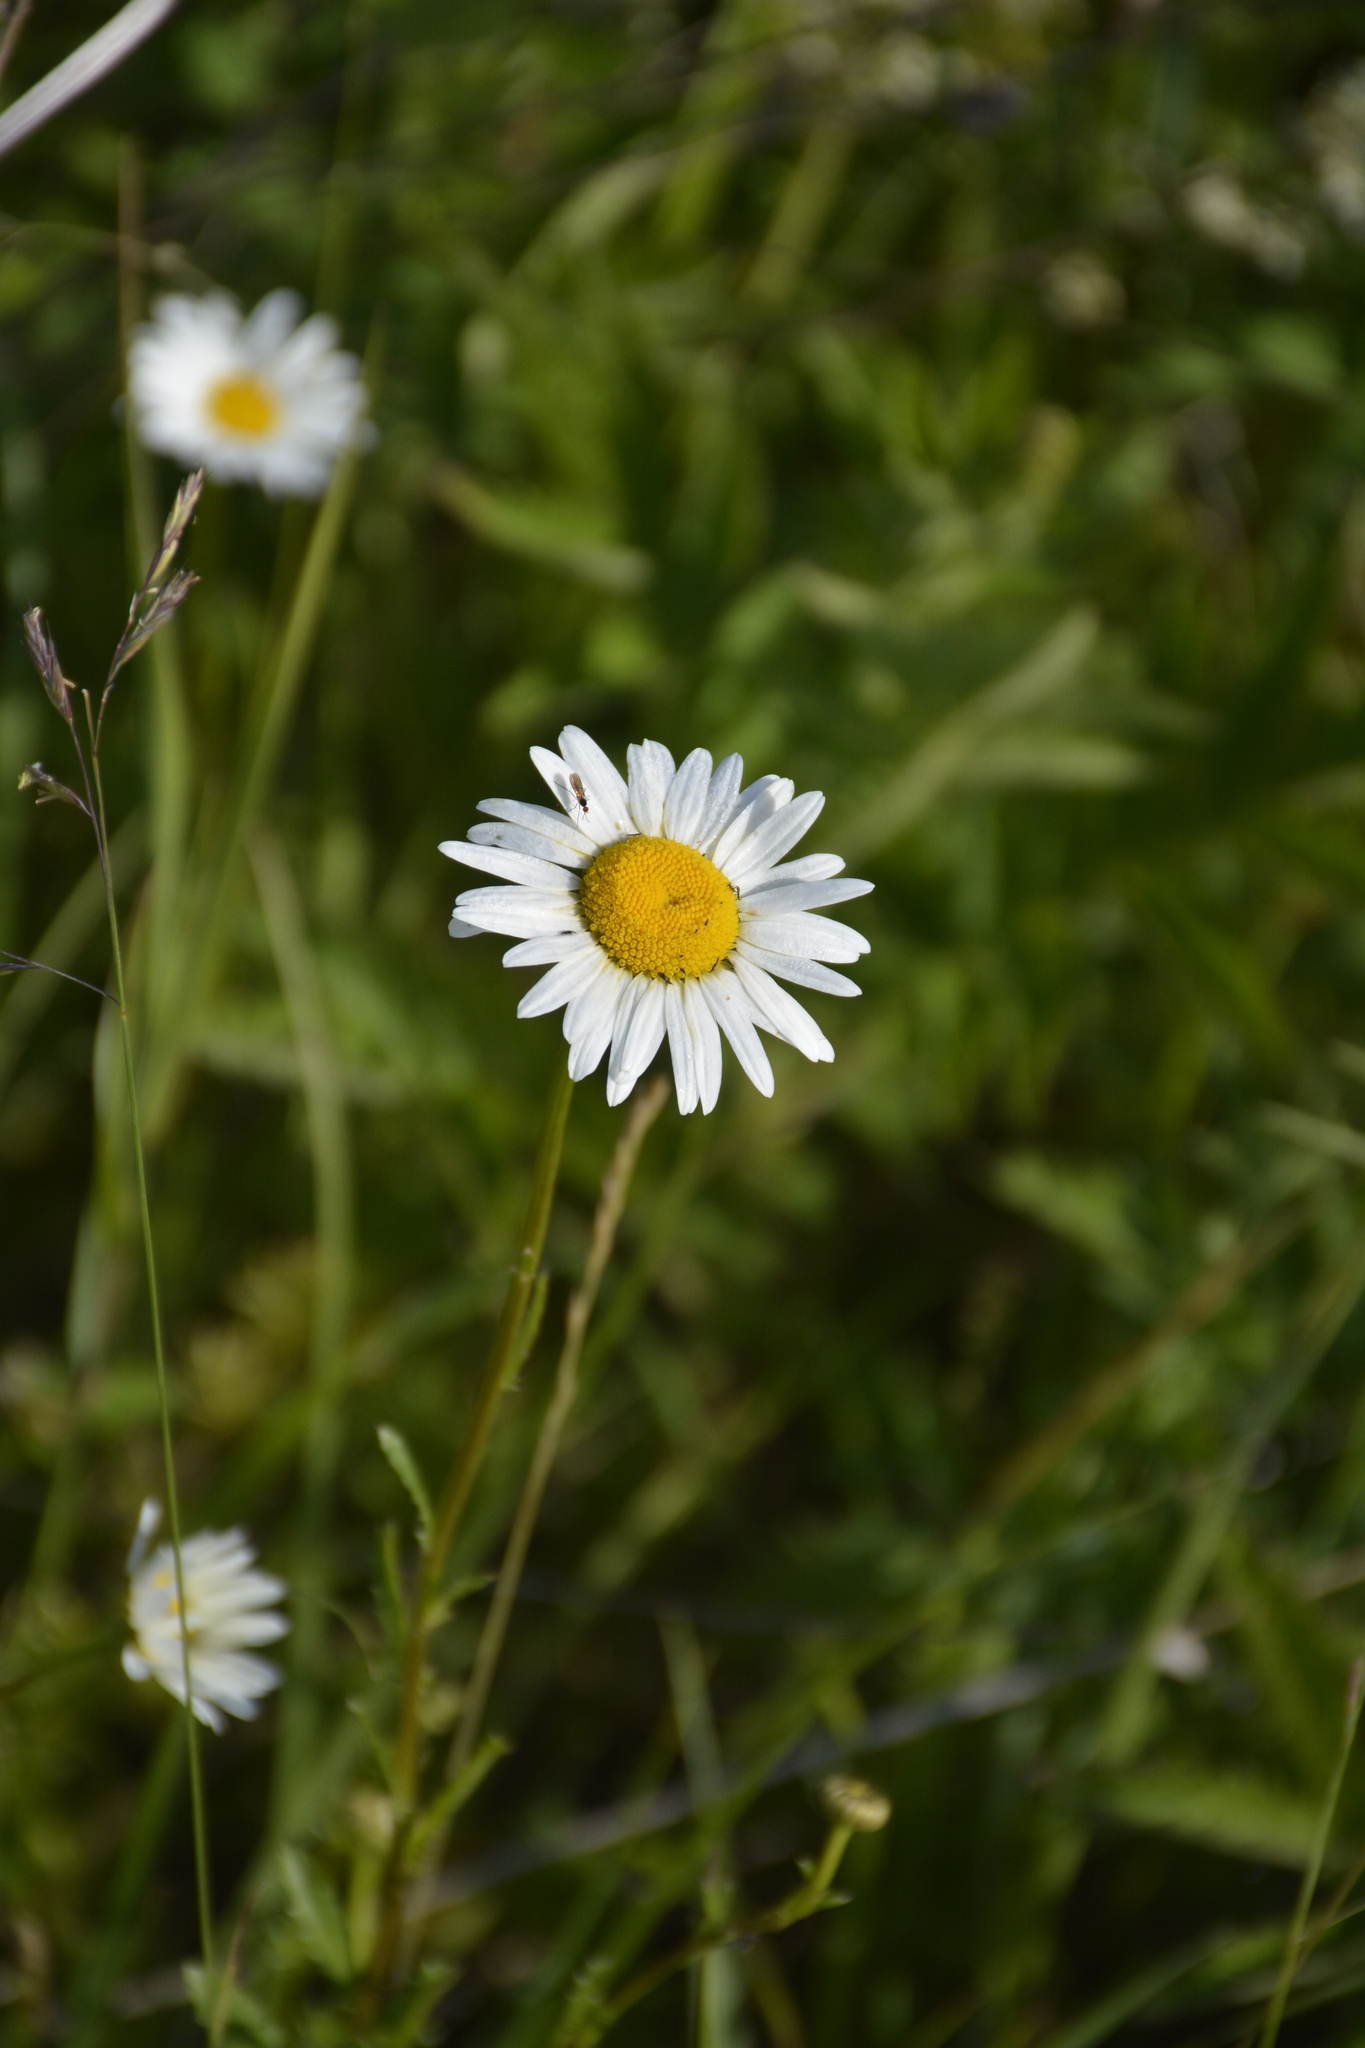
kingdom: Plantae
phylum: Tracheophyta
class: Magnoliopsida
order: Asterales
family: Asteraceae
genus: Leucanthemum
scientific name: Leucanthemum vulgare
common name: Oxeye daisy
